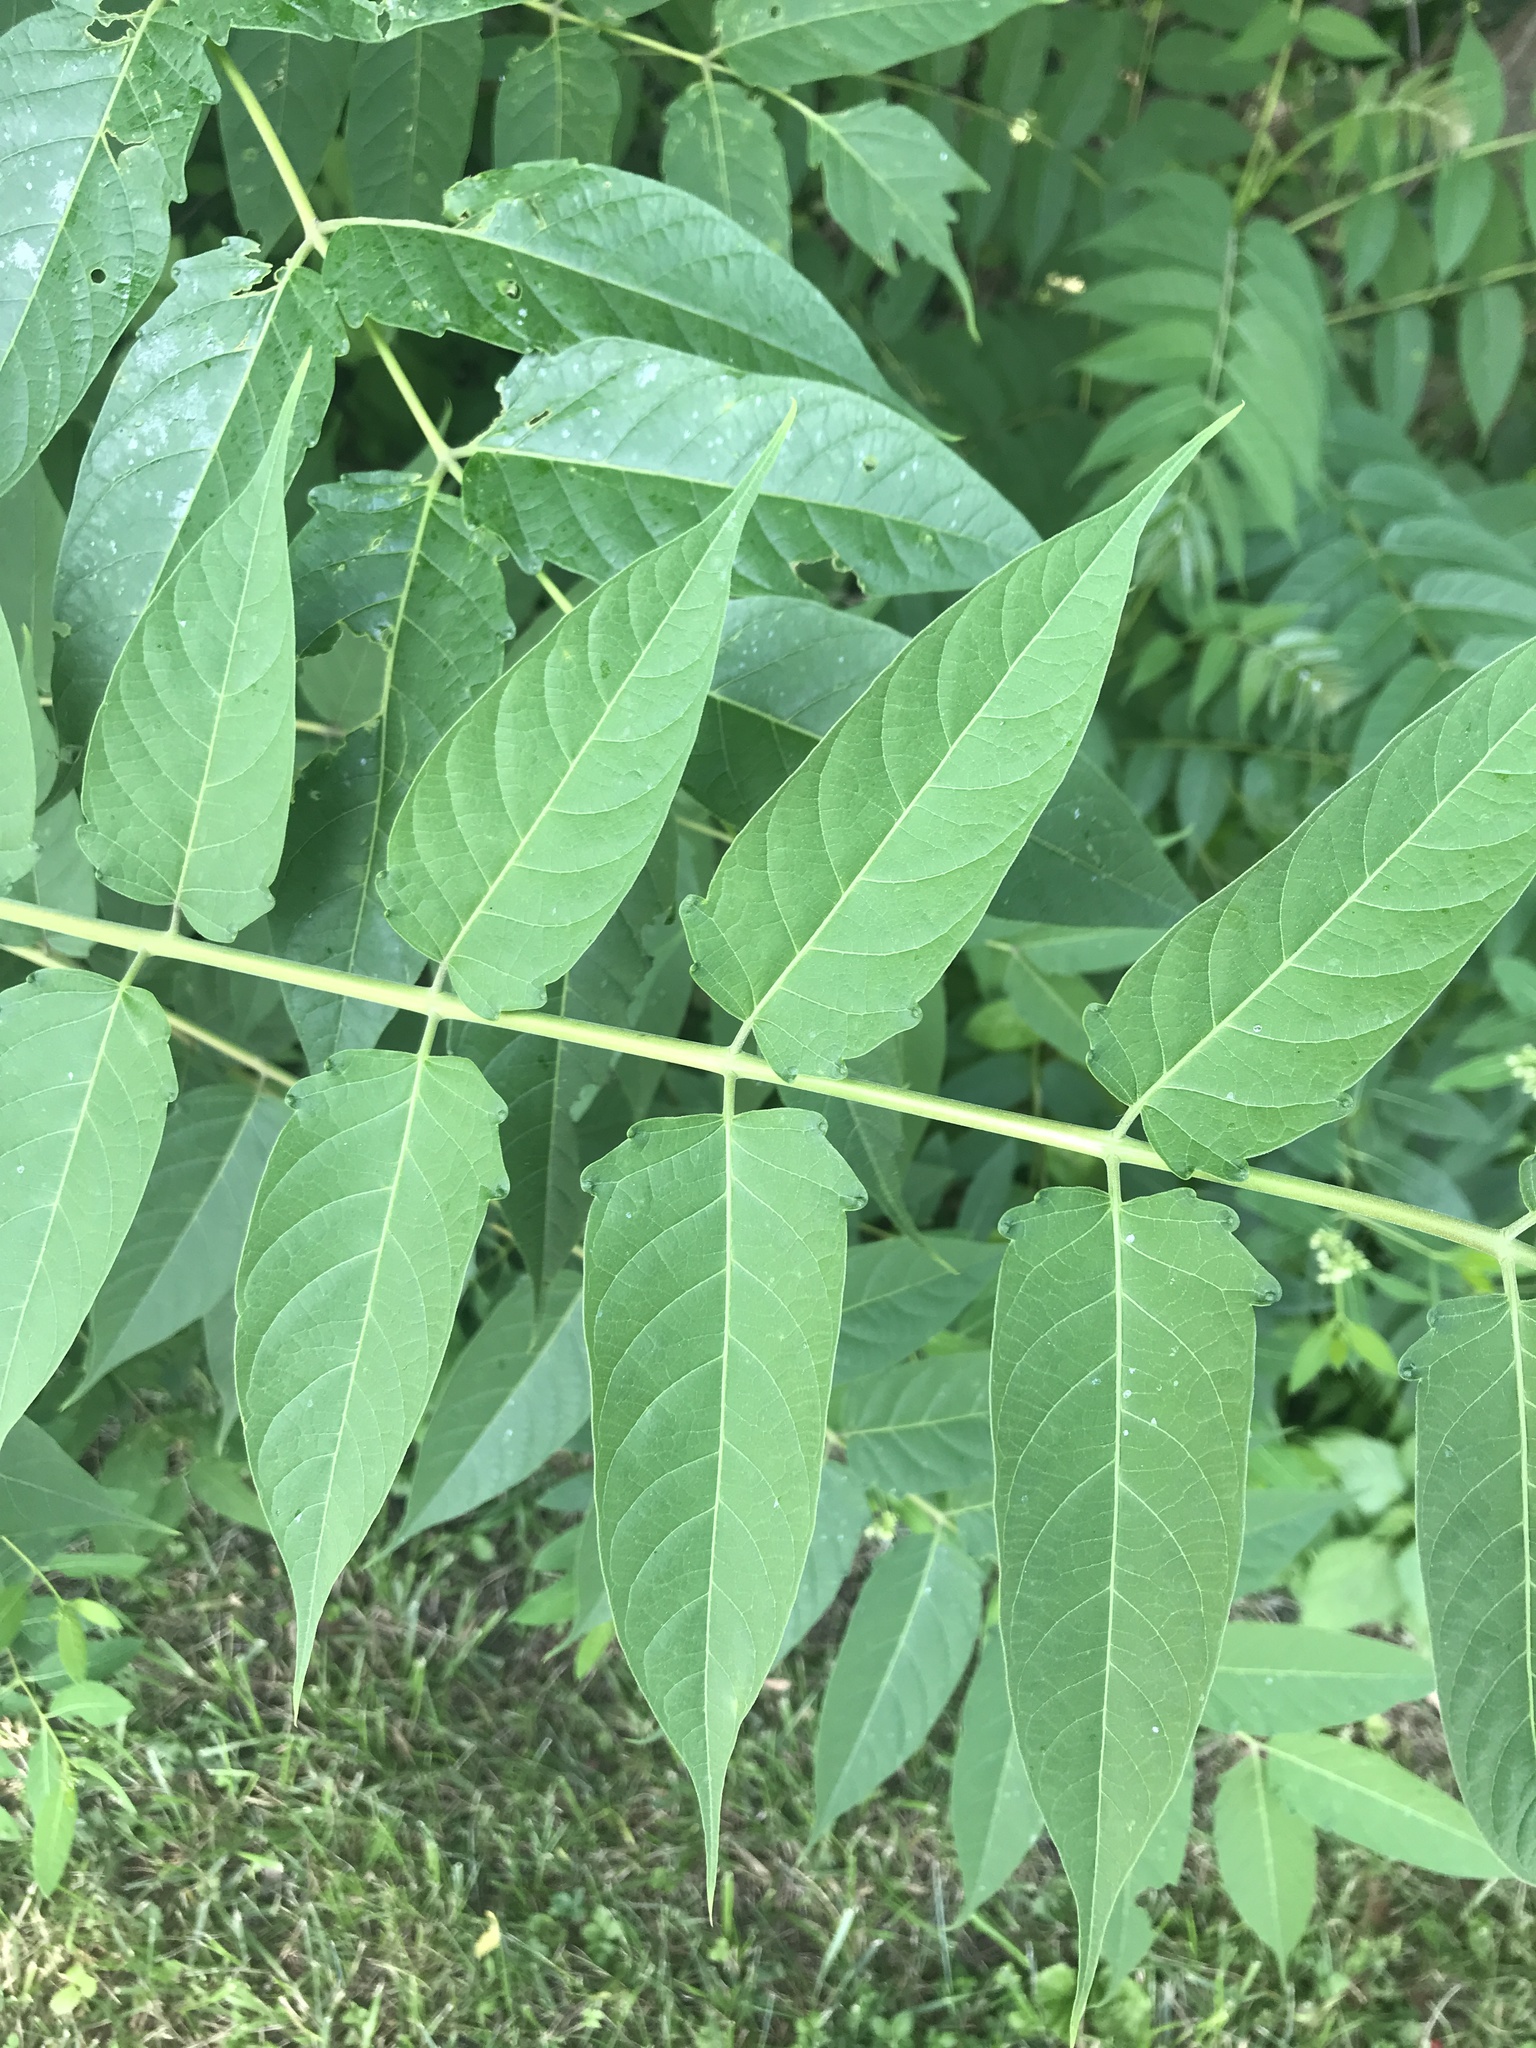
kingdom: Plantae
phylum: Tracheophyta
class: Magnoliopsida
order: Sapindales
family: Simaroubaceae
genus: Ailanthus
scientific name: Ailanthus altissima
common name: Tree-of-heaven
